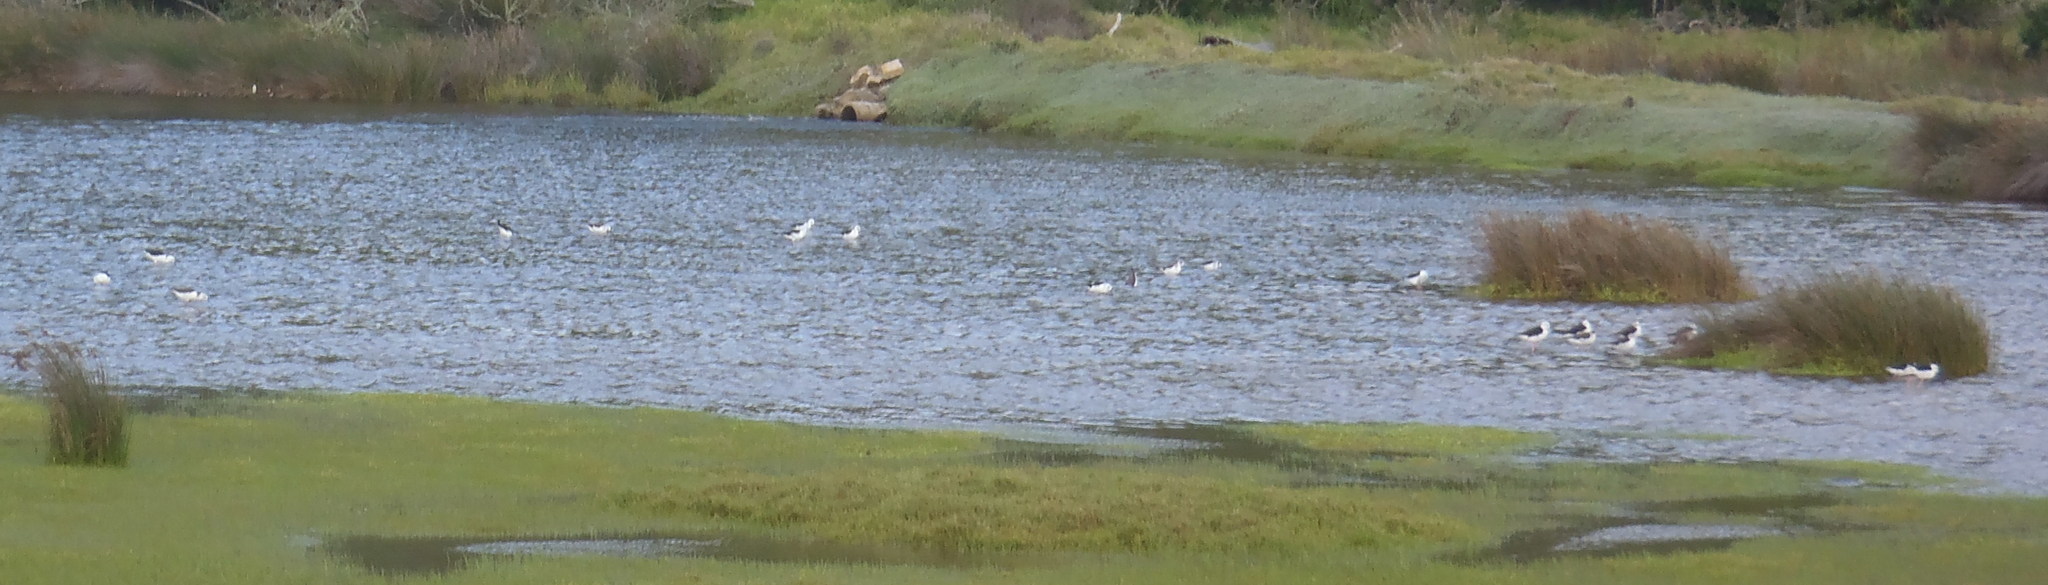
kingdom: Animalia
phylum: Chordata
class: Aves
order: Charadriiformes
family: Recurvirostridae
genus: Himantopus
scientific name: Himantopus himantopus
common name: Black-winged stilt
